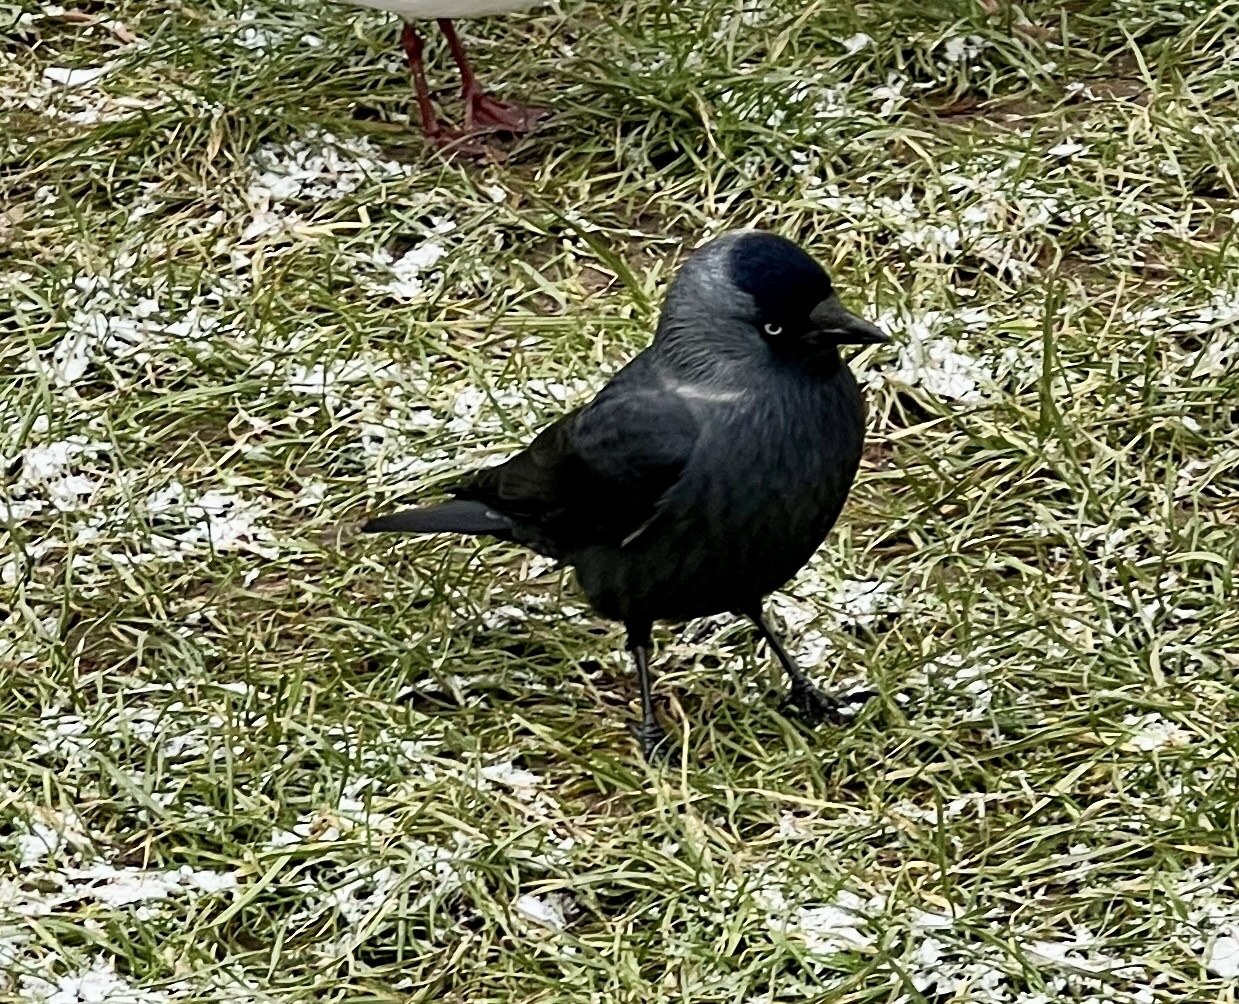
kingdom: Animalia
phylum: Chordata
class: Aves
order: Passeriformes
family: Corvidae
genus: Coloeus
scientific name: Coloeus monedula
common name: Western jackdaw
